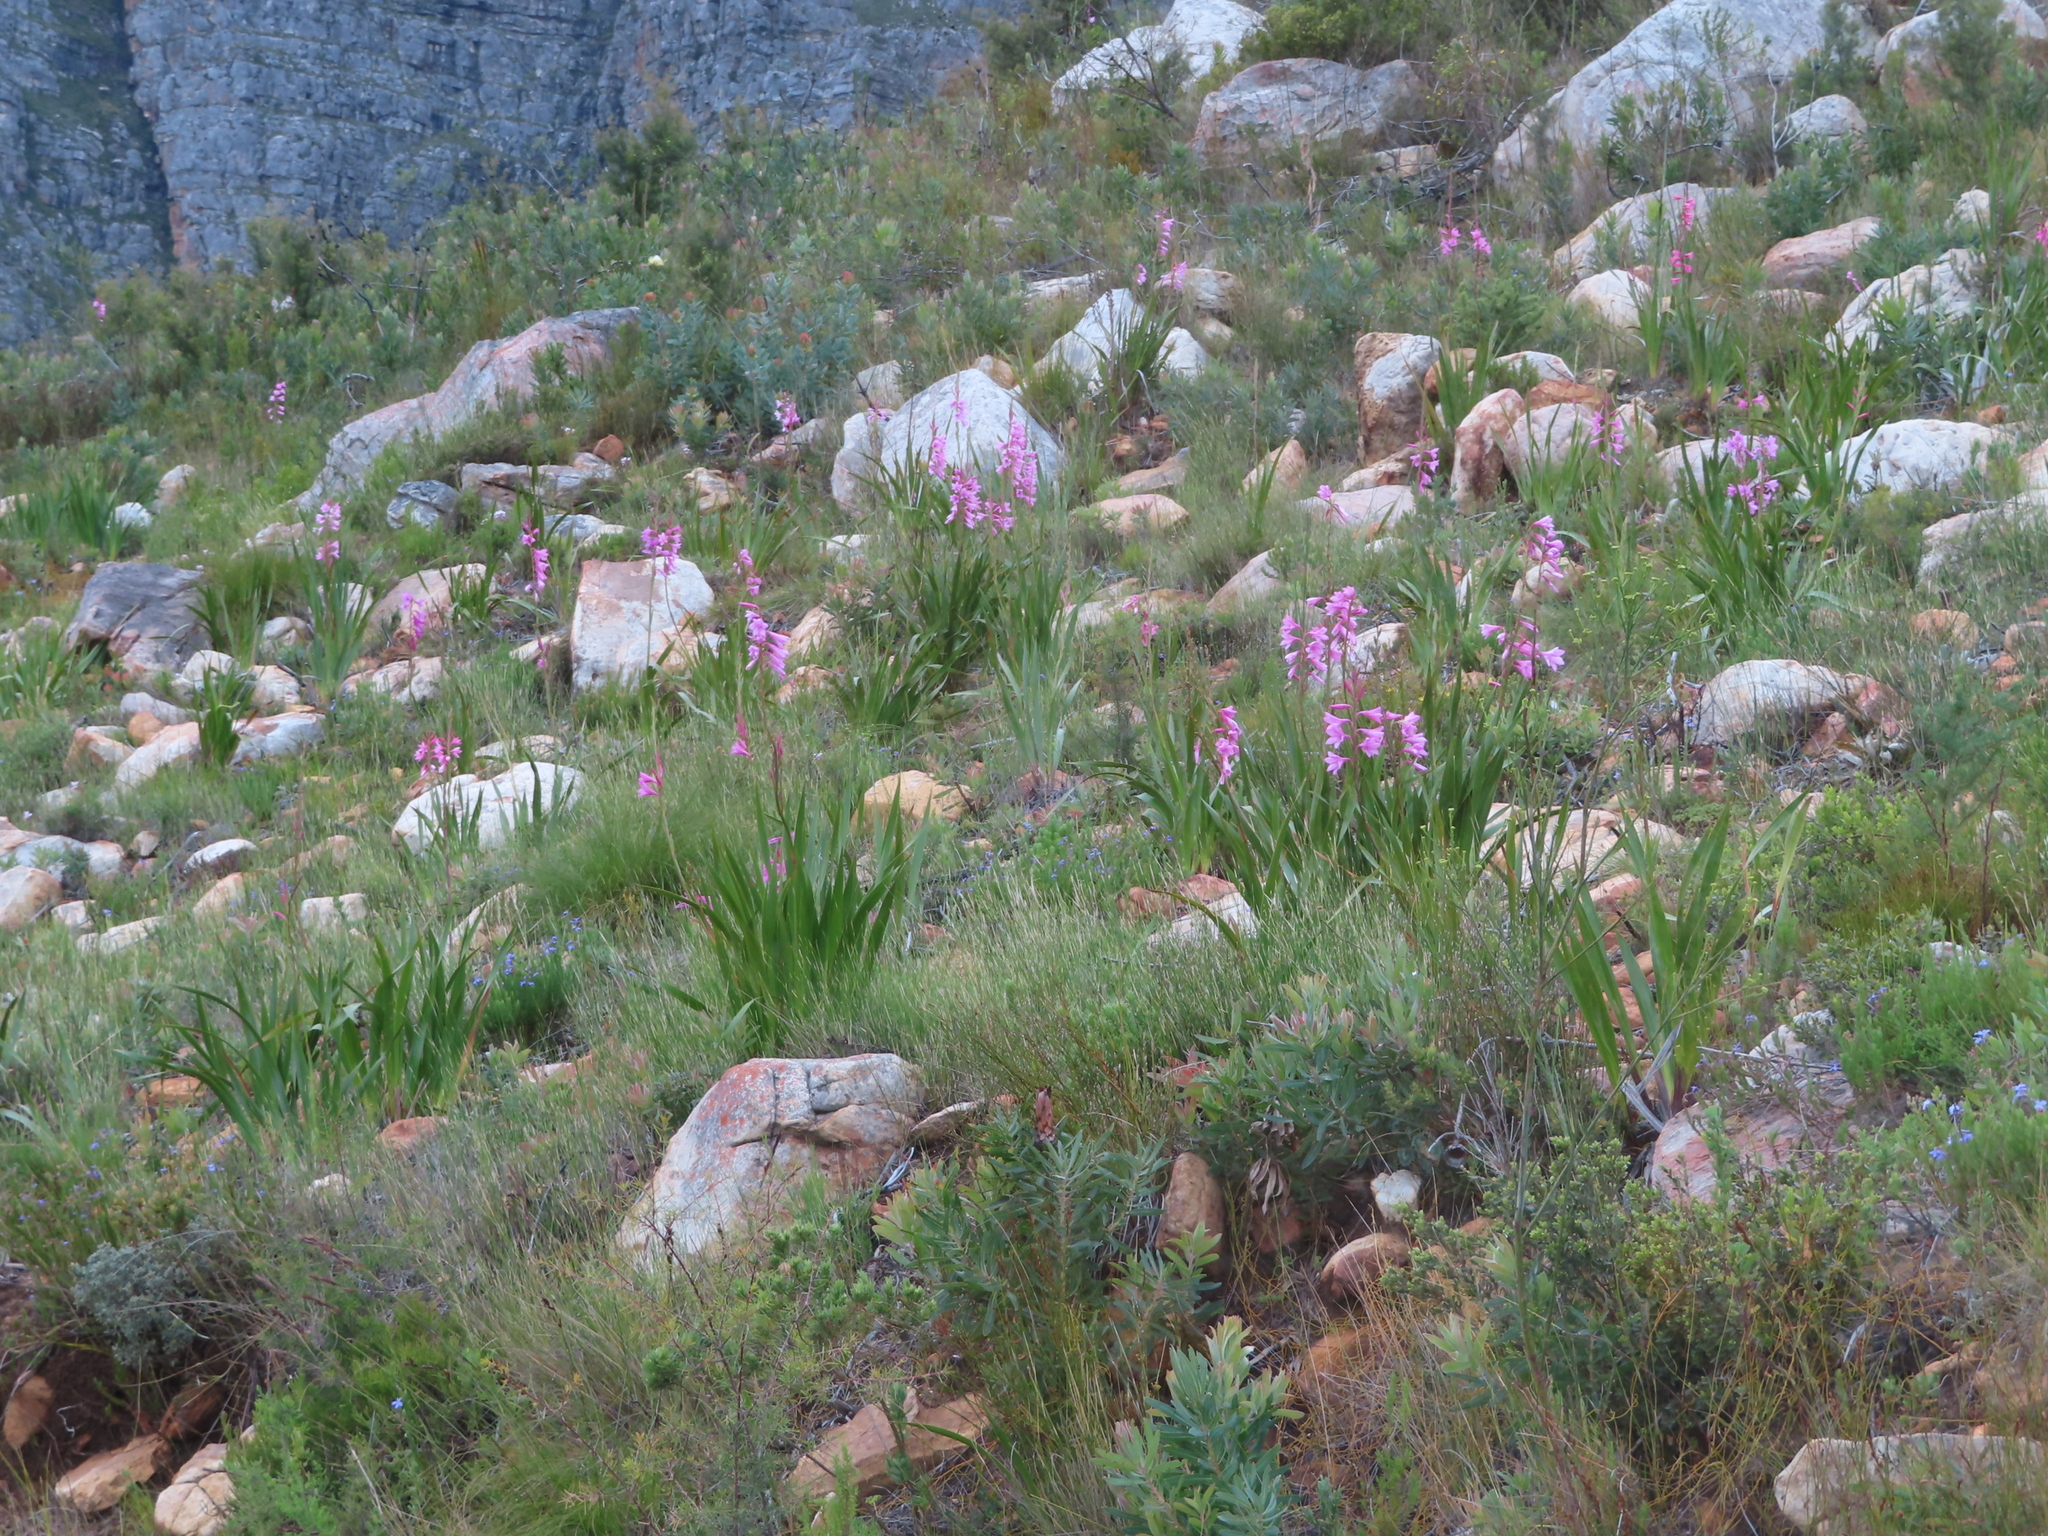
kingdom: Plantae
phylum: Tracheophyta
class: Liliopsida
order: Asparagales
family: Iridaceae
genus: Watsonia
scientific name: Watsonia borbonica
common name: Bugle-lily
